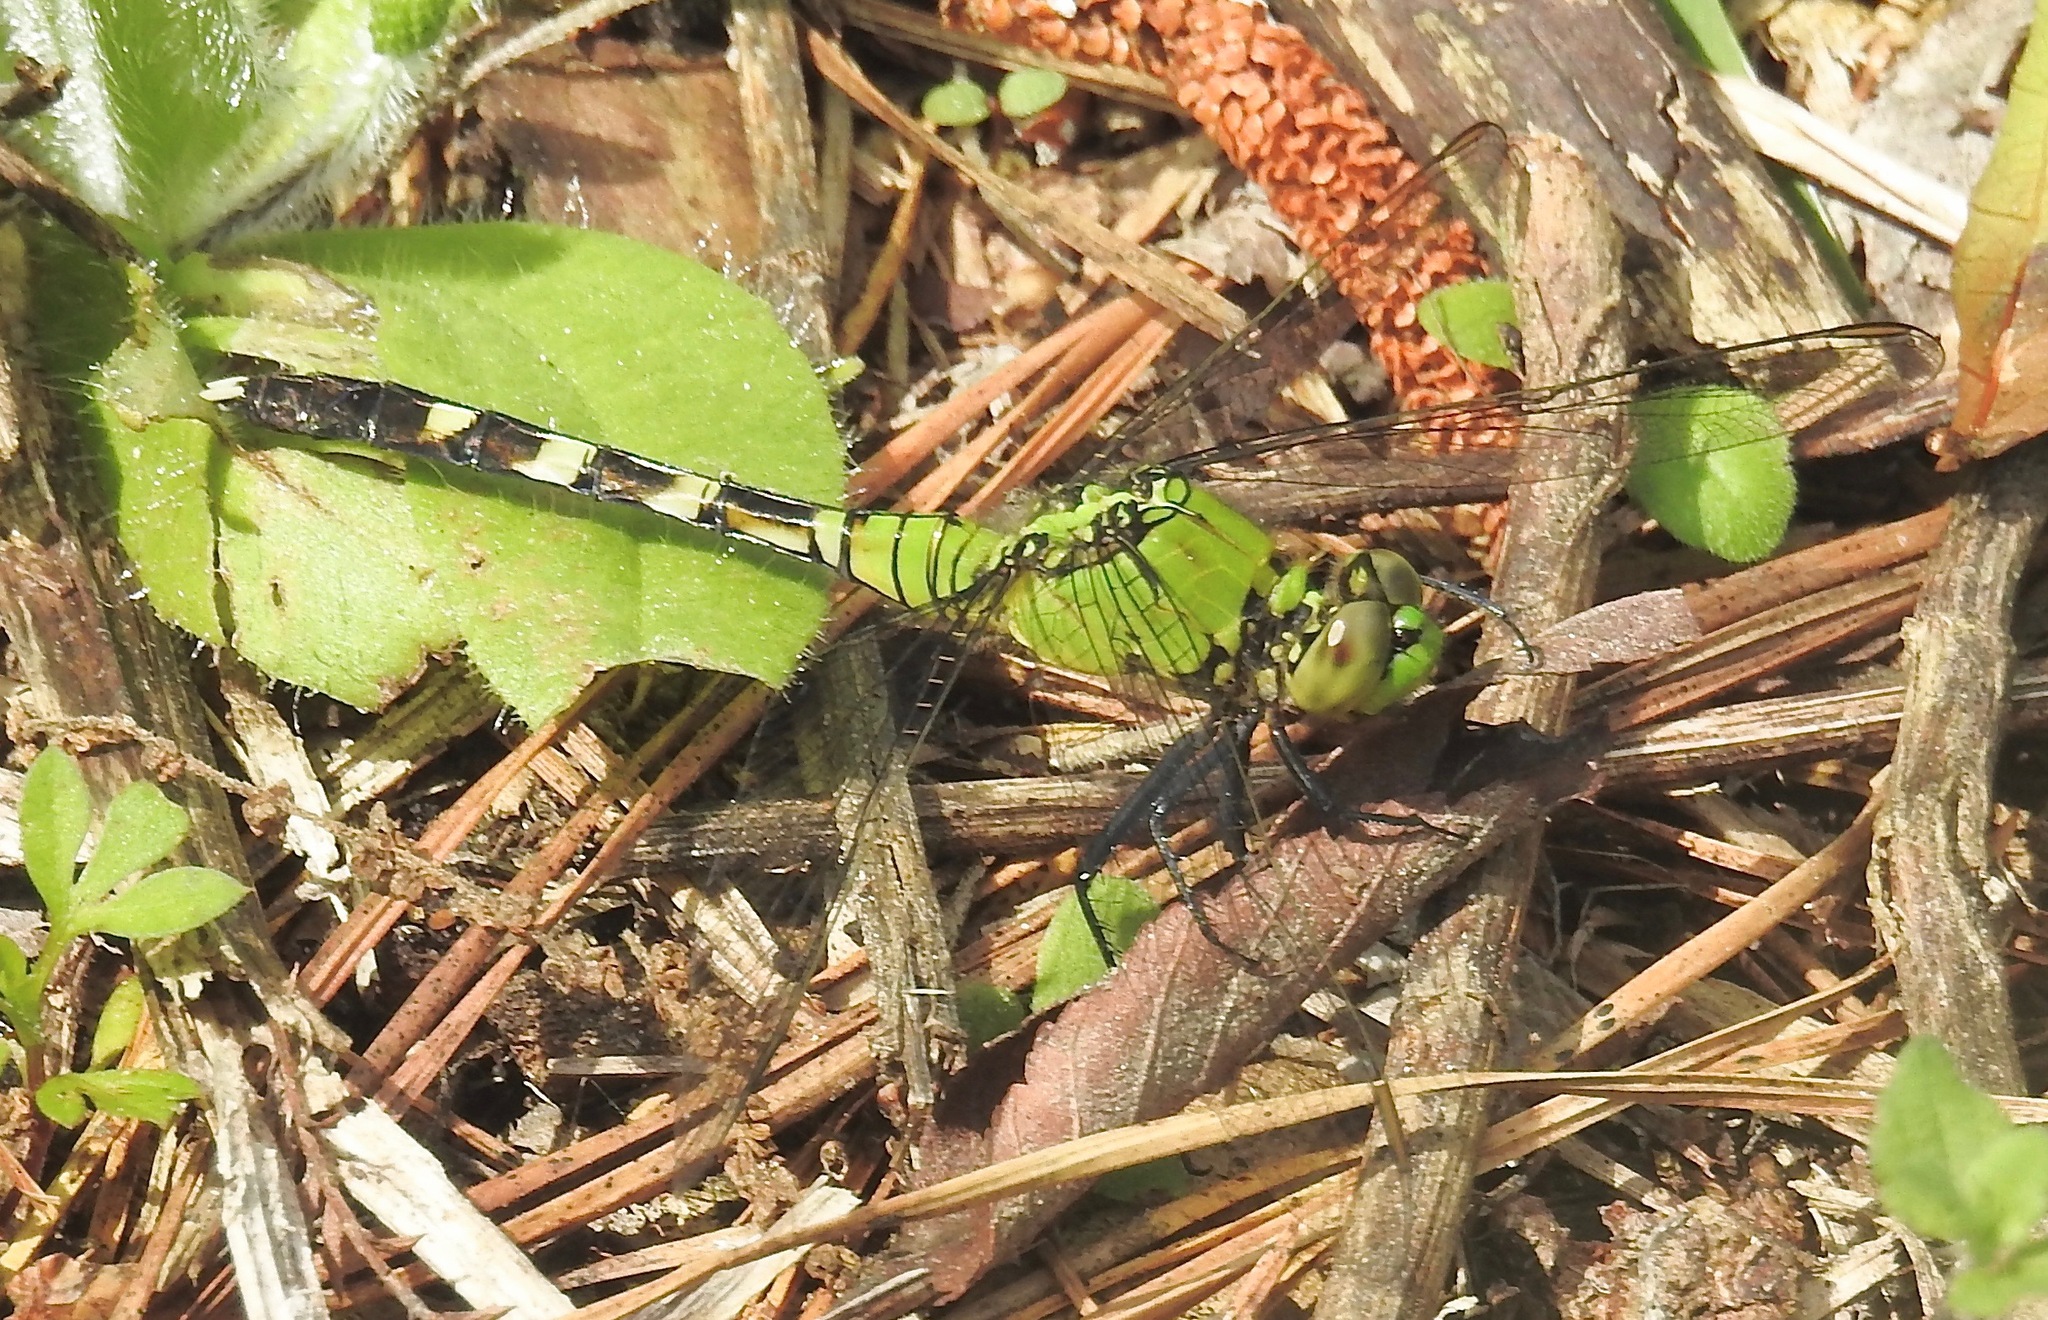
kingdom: Animalia
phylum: Arthropoda
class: Insecta
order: Odonata
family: Libellulidae
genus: Erythemis
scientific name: Erythemis simplicicollis
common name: Eastern pondhawk
